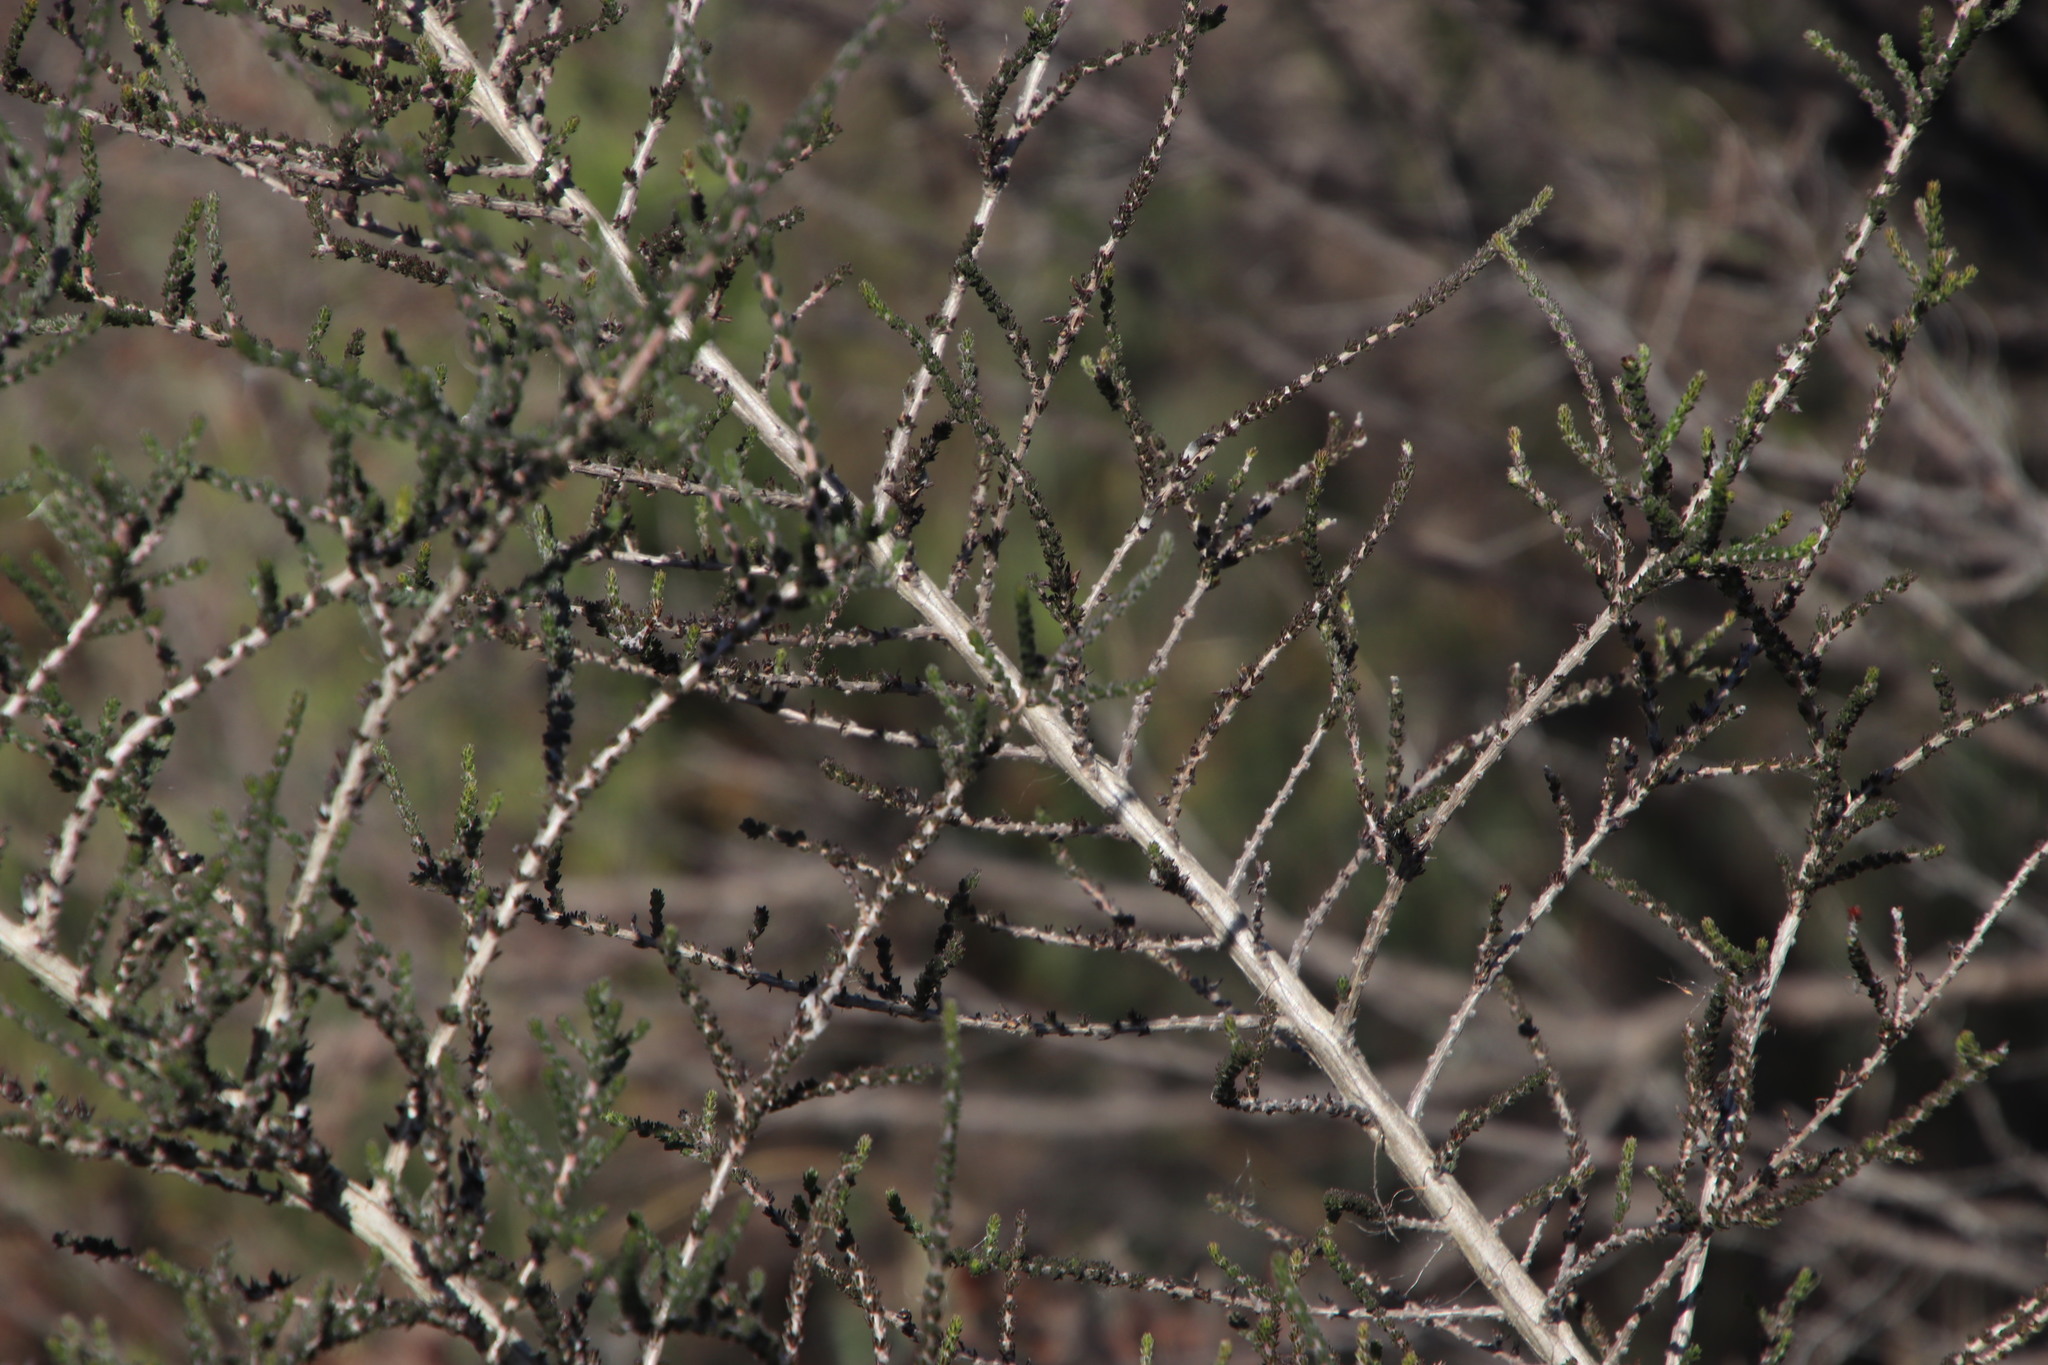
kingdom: Plantae
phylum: Tracheophyta
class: Magnoliopsida
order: Fabales
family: Fabaceae
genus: Aspalathus
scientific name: Aspalathus hispida
